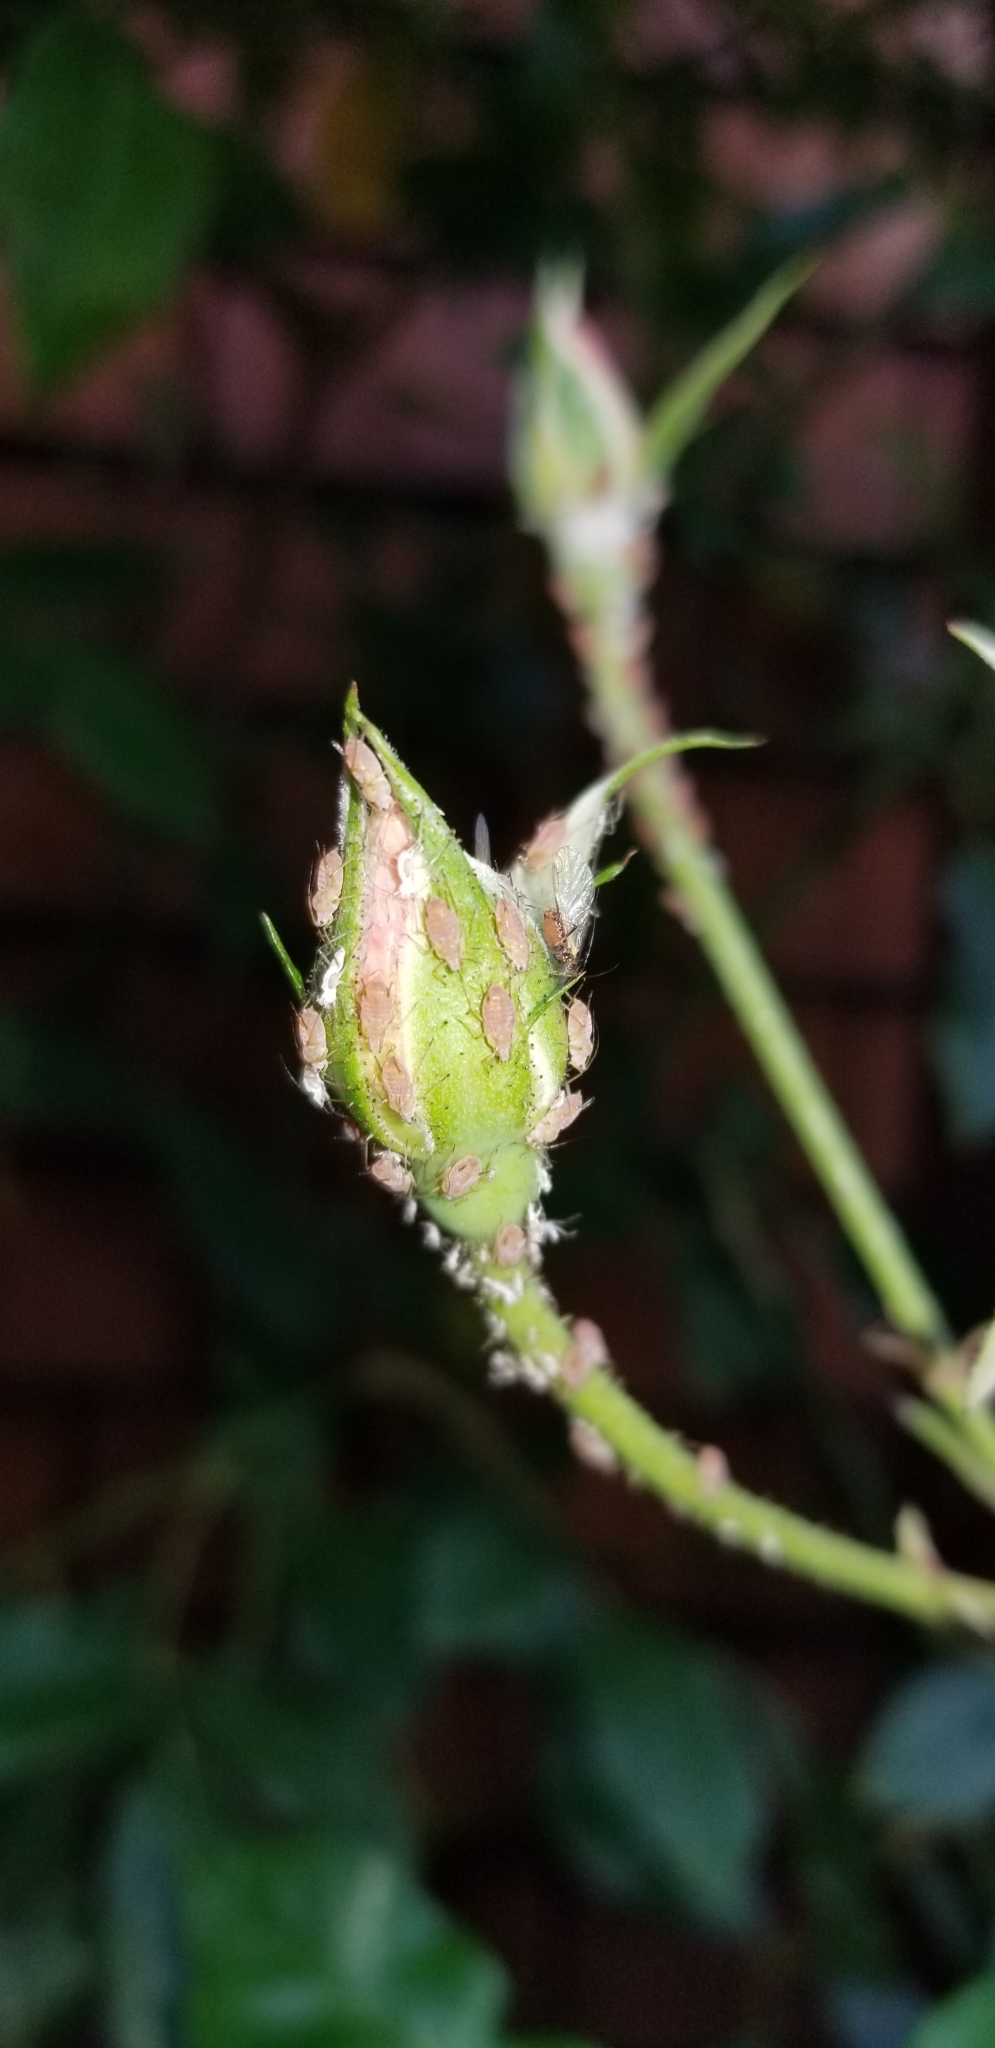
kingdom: Animalia
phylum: Arthropoda
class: Insecta
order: Hemiptera
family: Aphididae
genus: Macrosiphum
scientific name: Macrosiphum rosae
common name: Rose aphid
